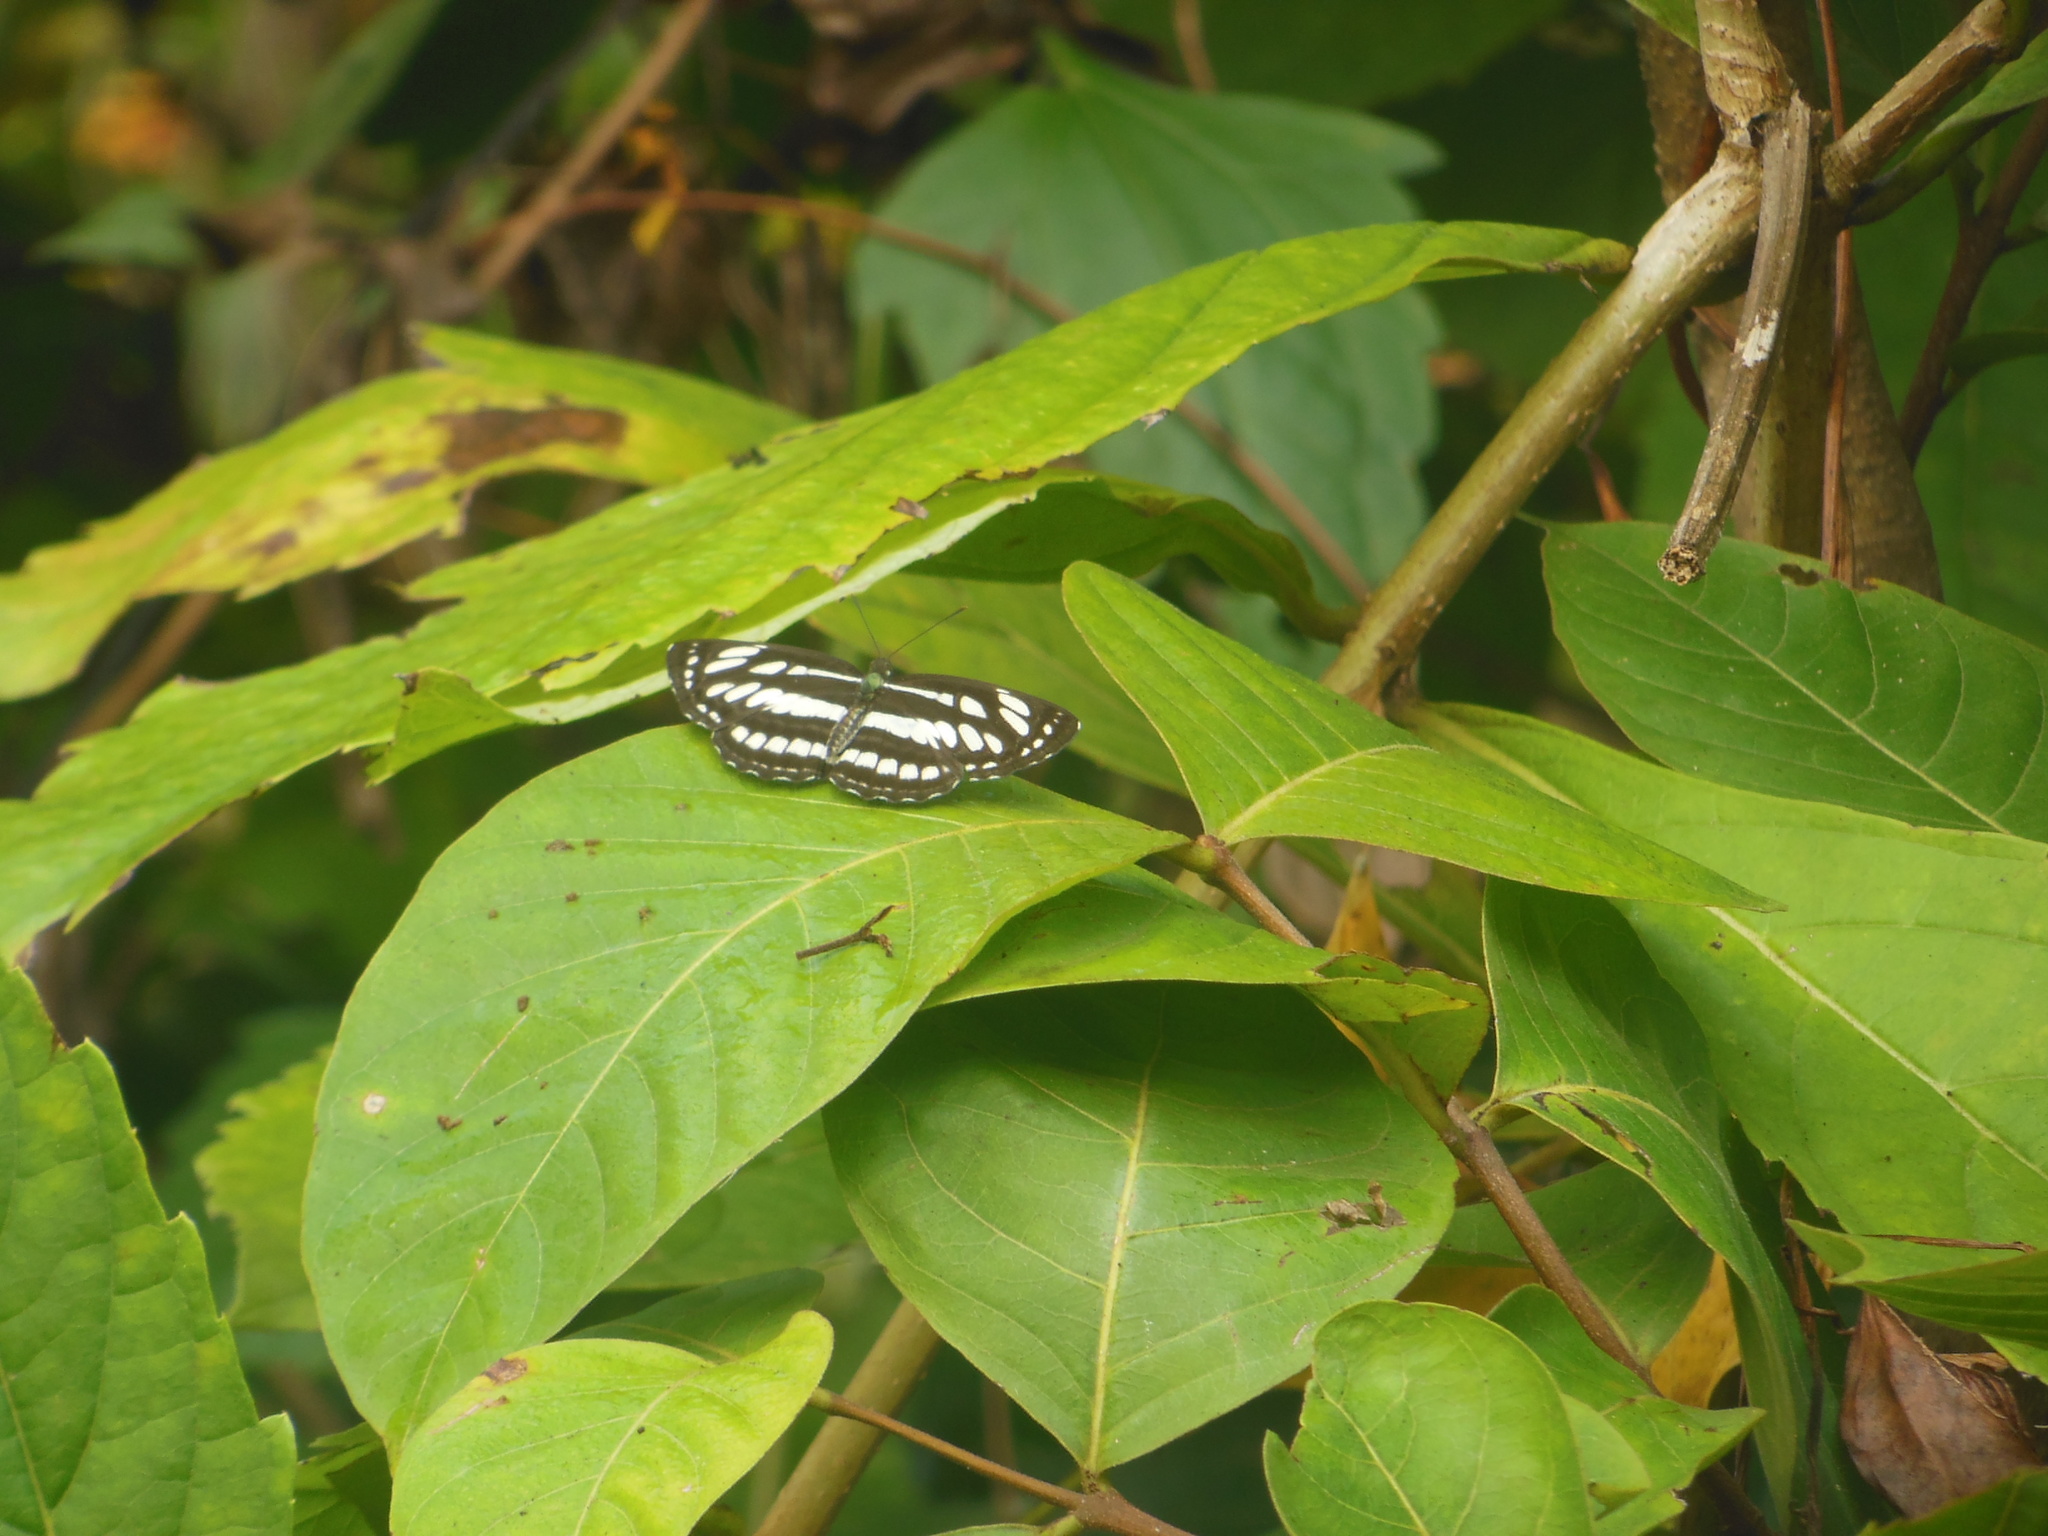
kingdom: Animalia
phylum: Arthropoda
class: Insecta
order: Lepidoptera
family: Nymphalidae
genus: Neptis
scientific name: Neptis hylas
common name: Common sailer
